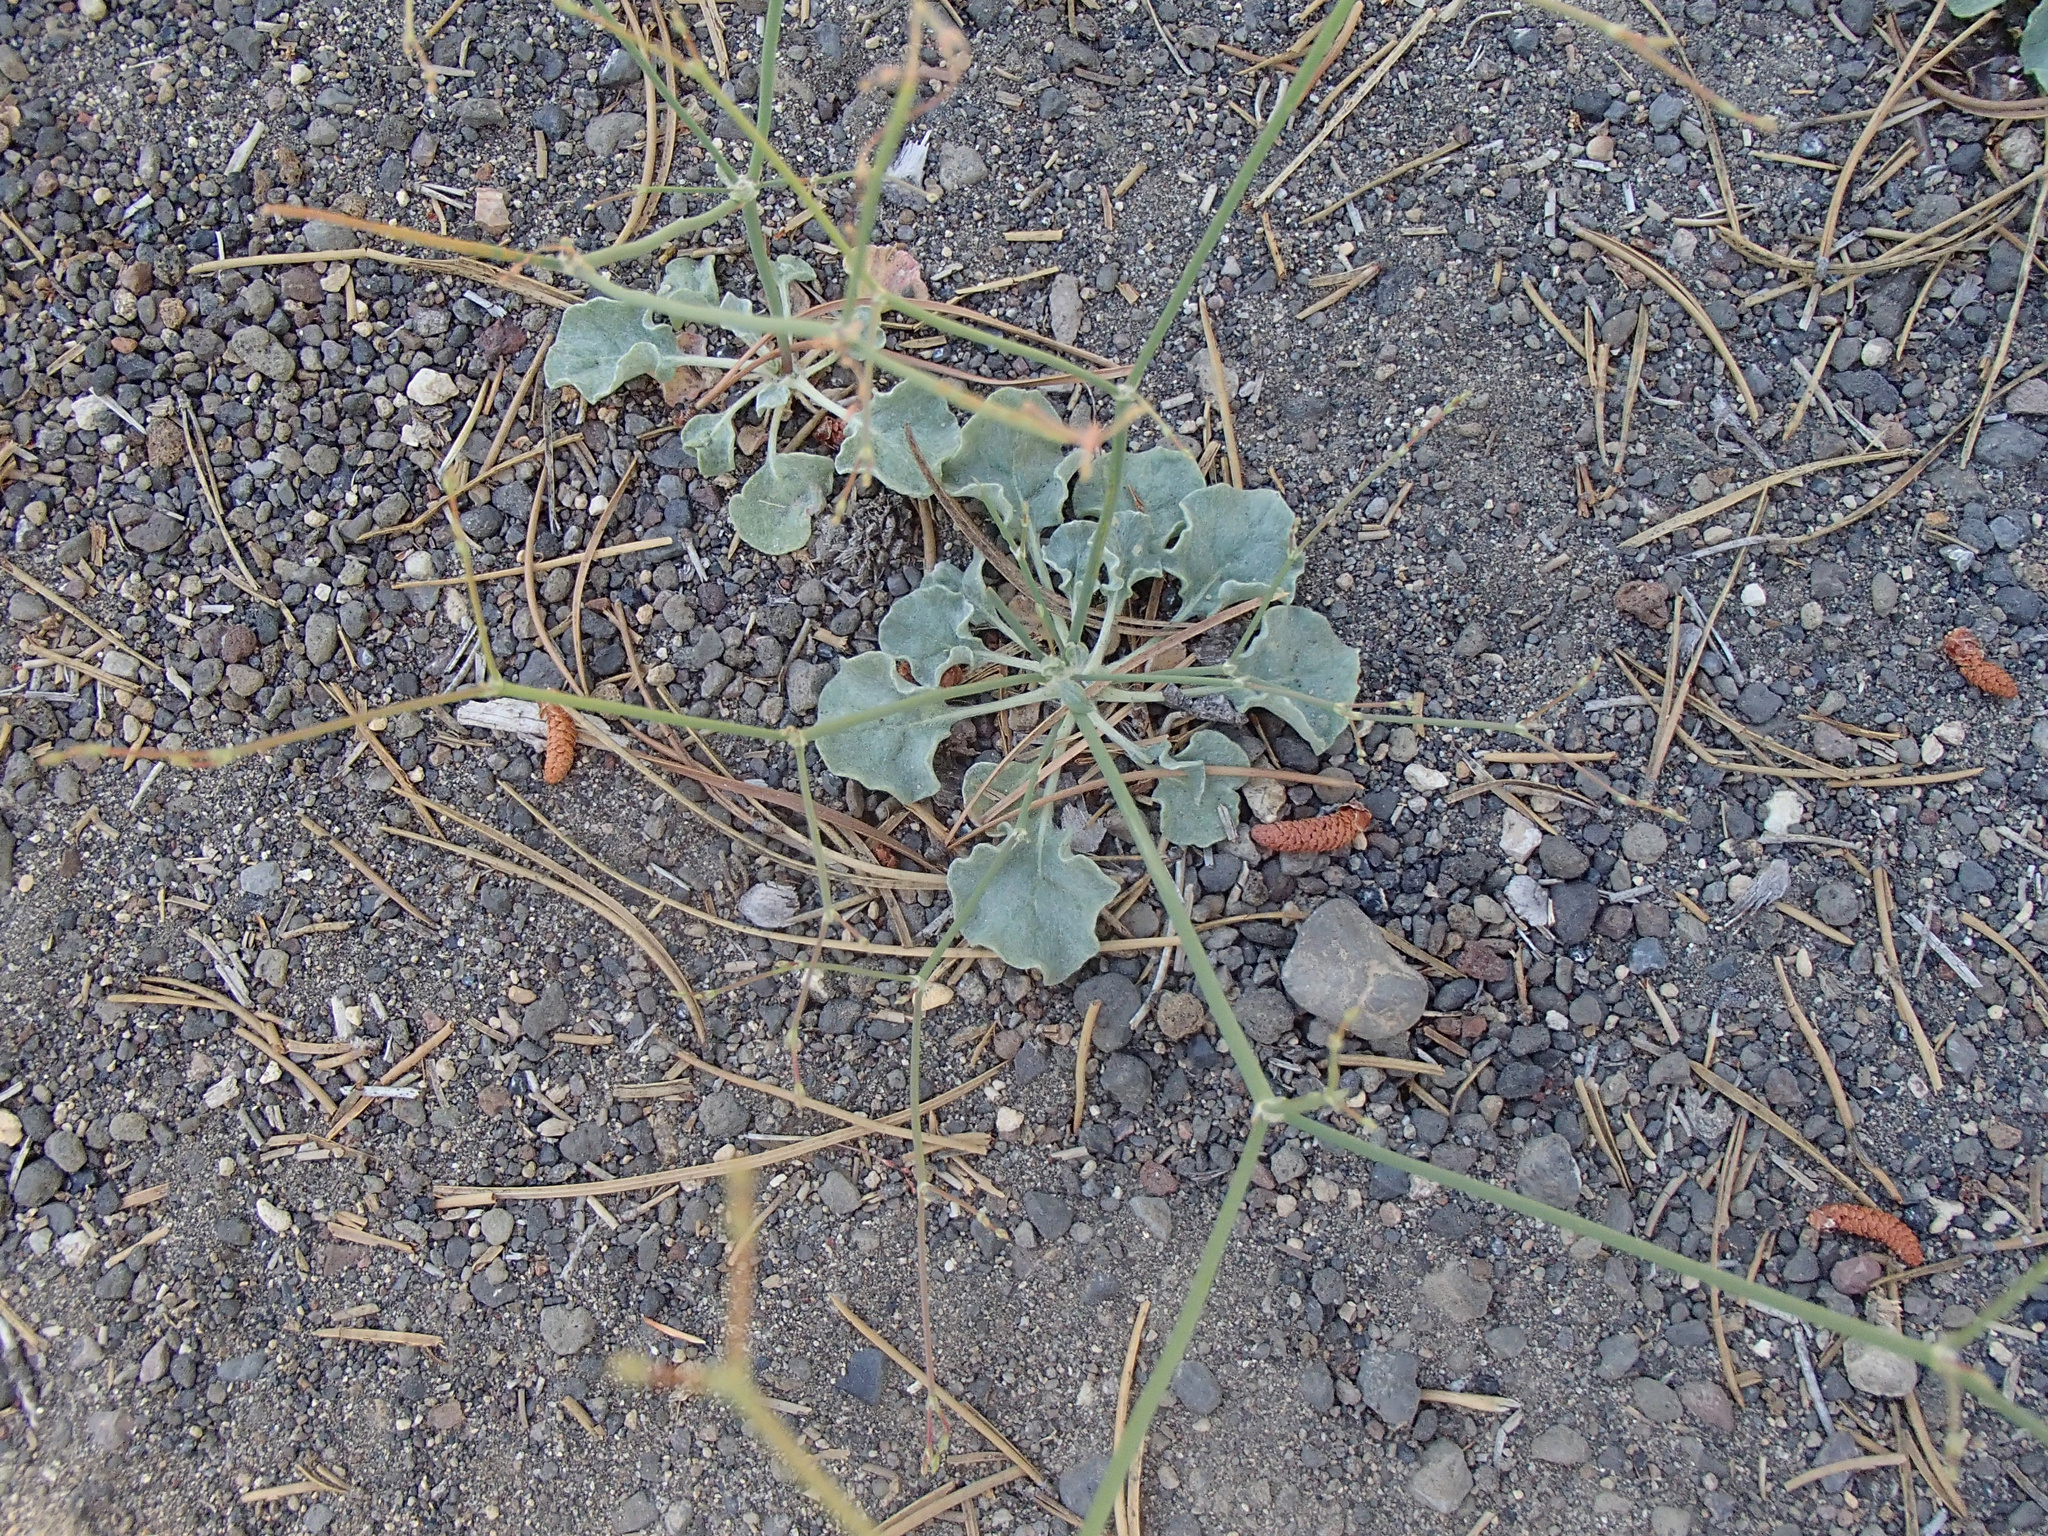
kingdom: Plantae
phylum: Tracheophyta
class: Magnoliopsida
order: Caryophyllales
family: Polygonaceae
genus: Eriogonum
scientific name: Eriogonum baileyi
